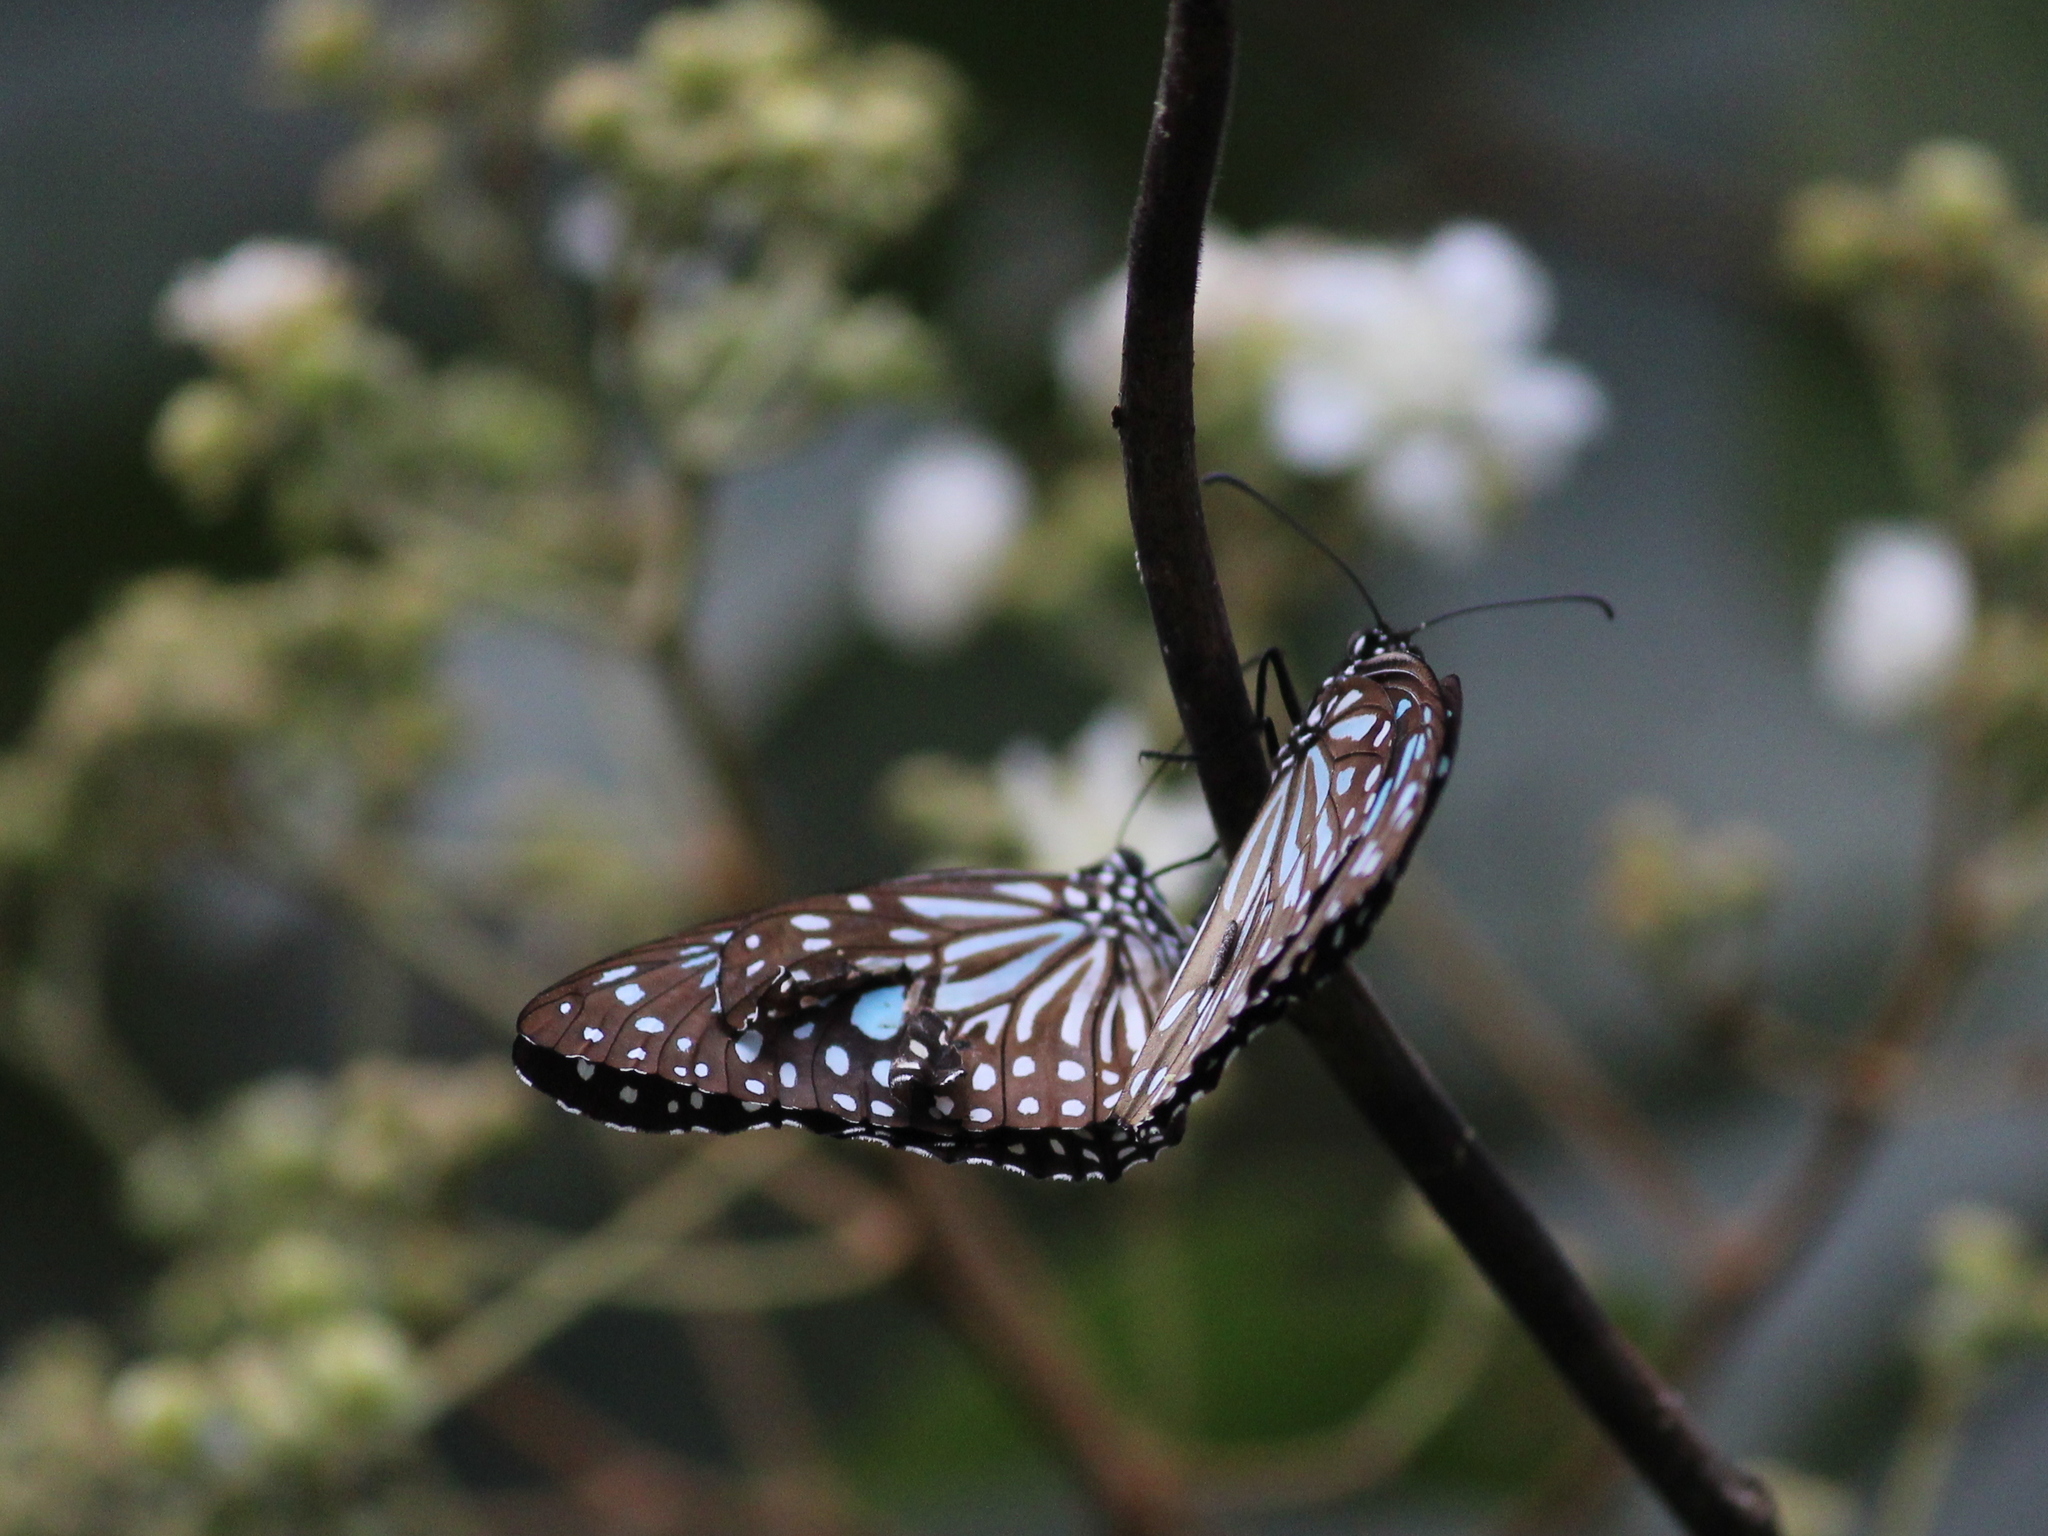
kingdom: Animalia
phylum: Arthropoda
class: Insecta
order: Lepidoptera
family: Nymphalidae
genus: Tirumala
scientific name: Tirumala septentrionis
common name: Dark blue tiger butterfly
